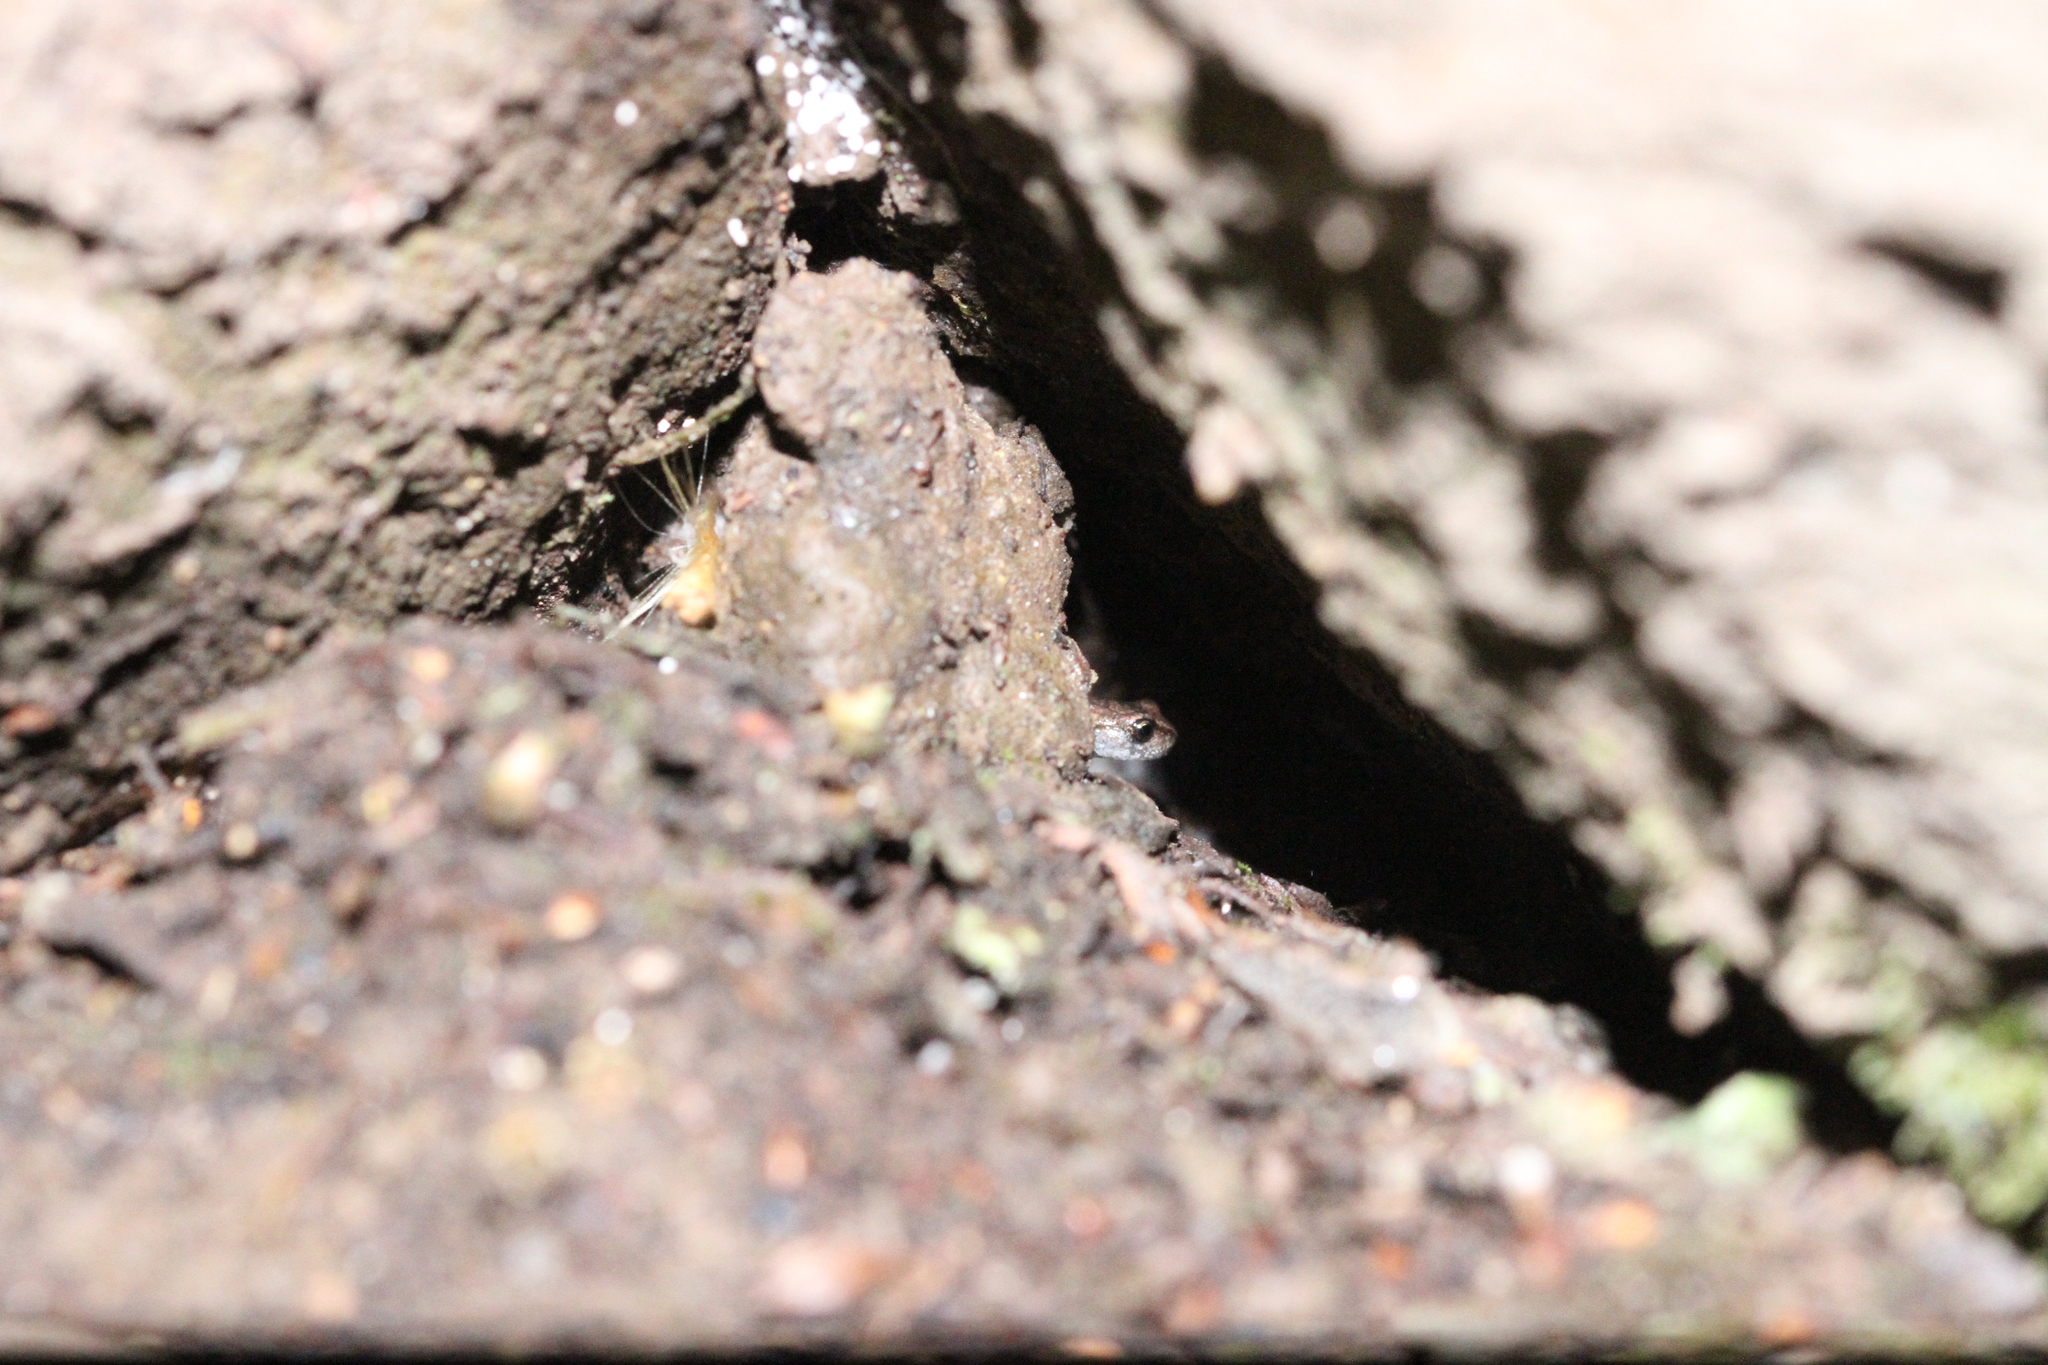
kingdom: Animalia
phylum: Chordata
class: Amphibia
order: Caudata
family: Plethodontidae
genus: Batrachoseps
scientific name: Batrachoseps attenuatus
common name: California slender salamander
